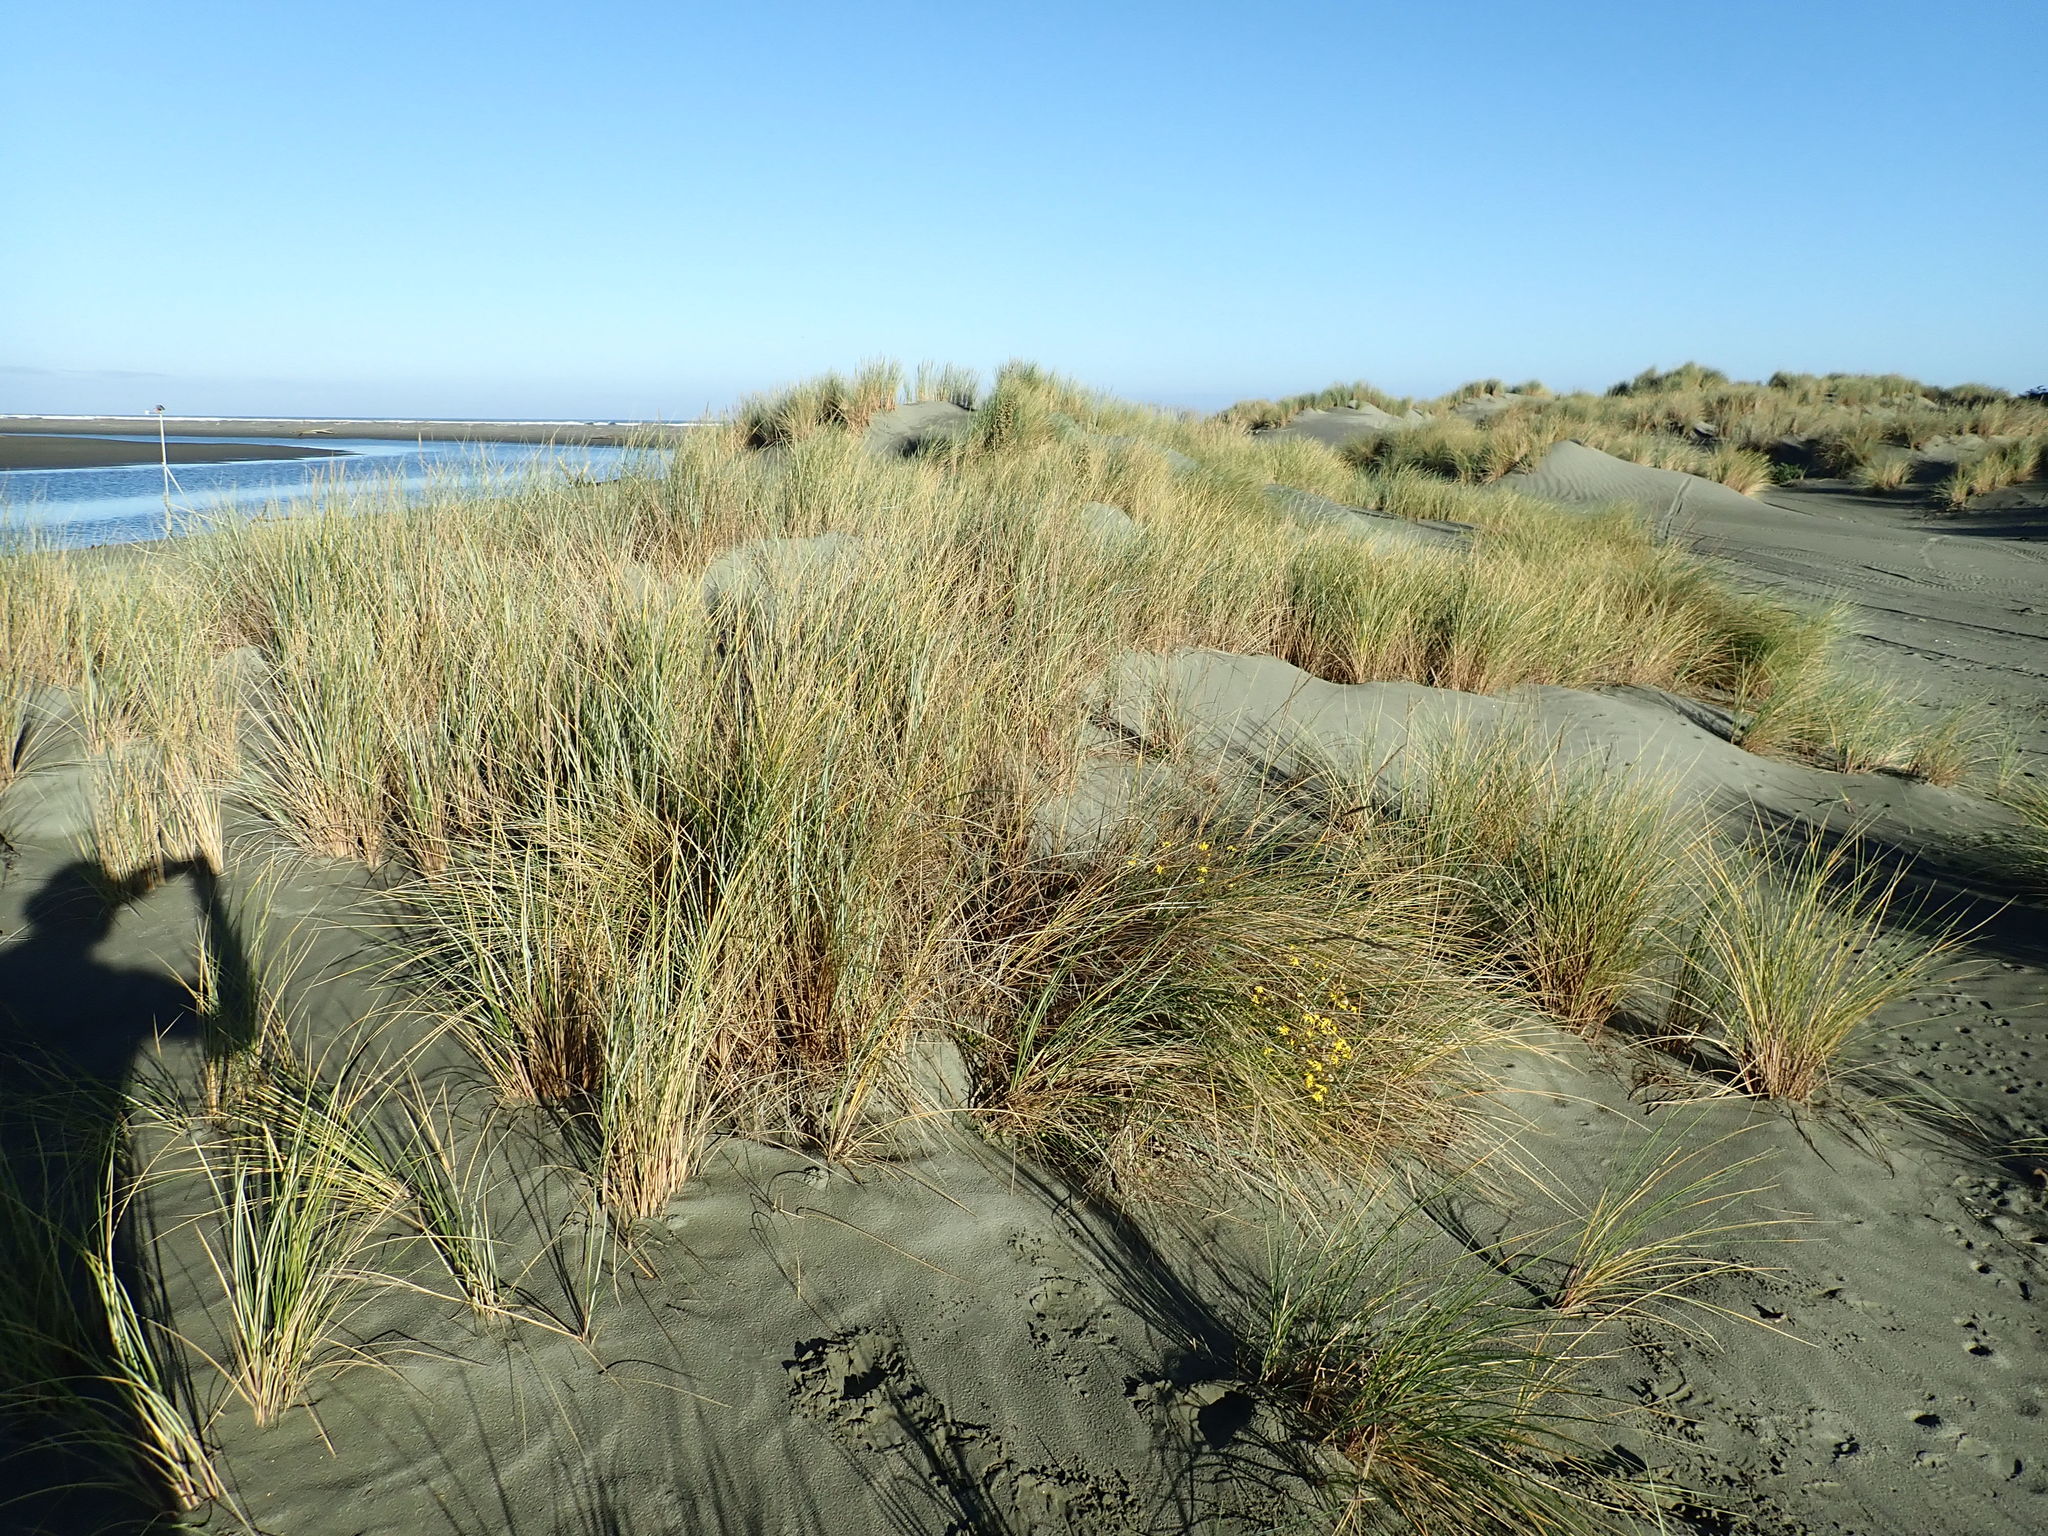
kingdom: Plantae
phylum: Tracheophyta
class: Magnoliopsida
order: Asterales
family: Asteraceae
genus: Senecio
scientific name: Senecio skirrhodon
